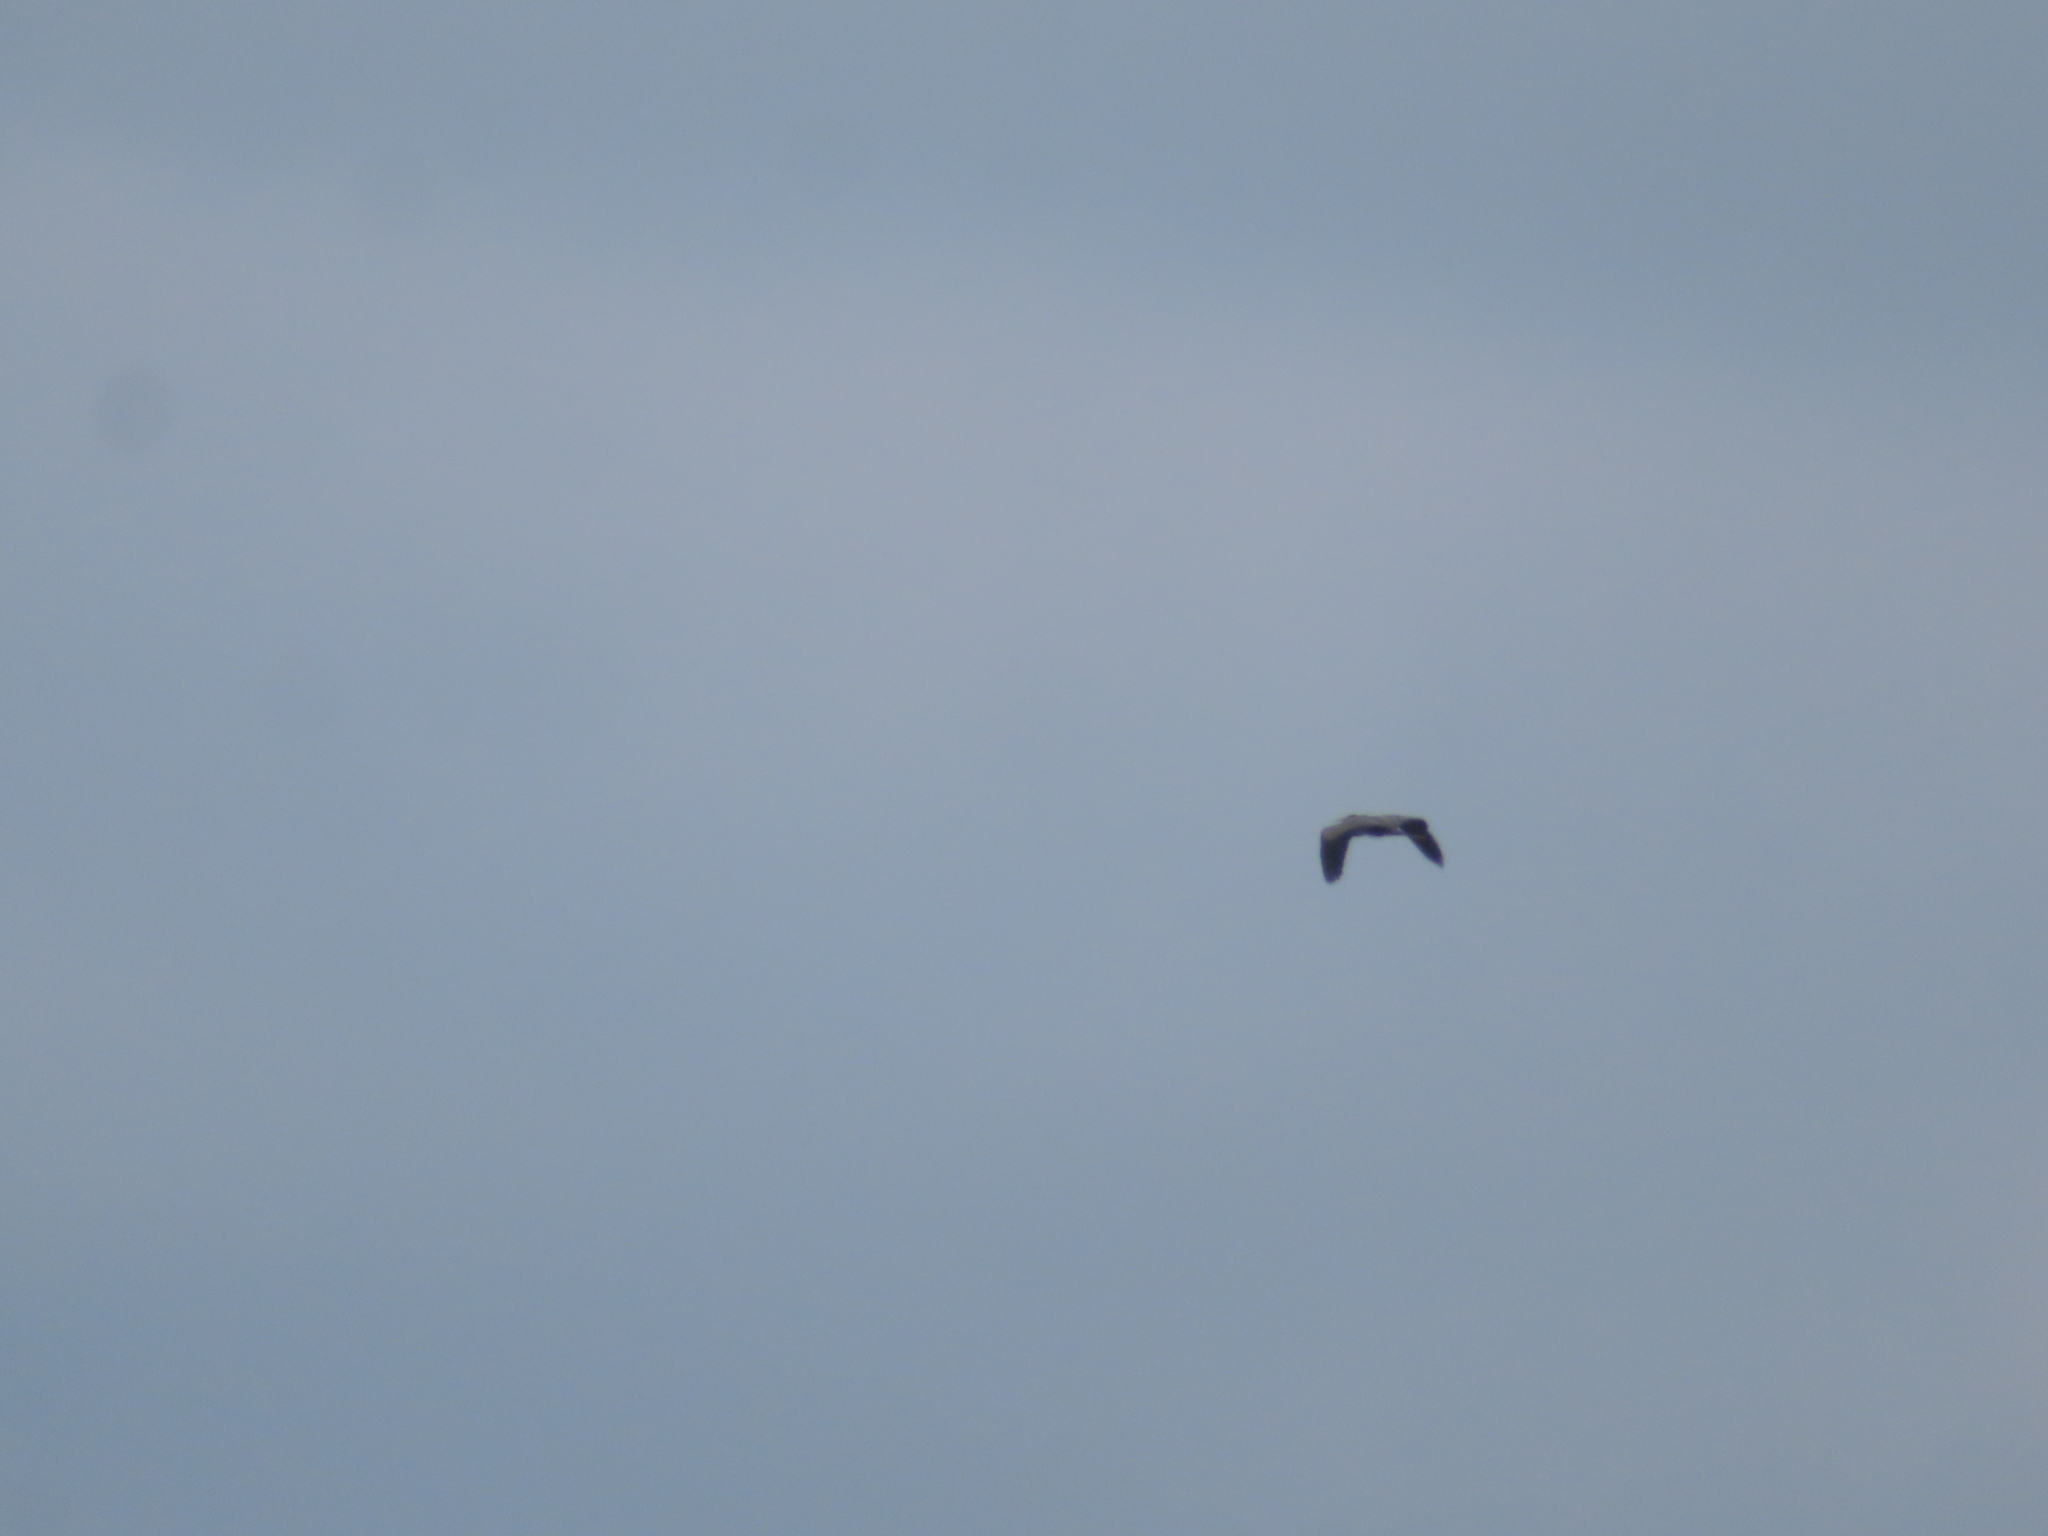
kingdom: Animalia
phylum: Chordata
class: Aves
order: Pelecaniformes
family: Ardeidae
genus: Ardea
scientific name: Ardea herodias
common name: Great blue heron
